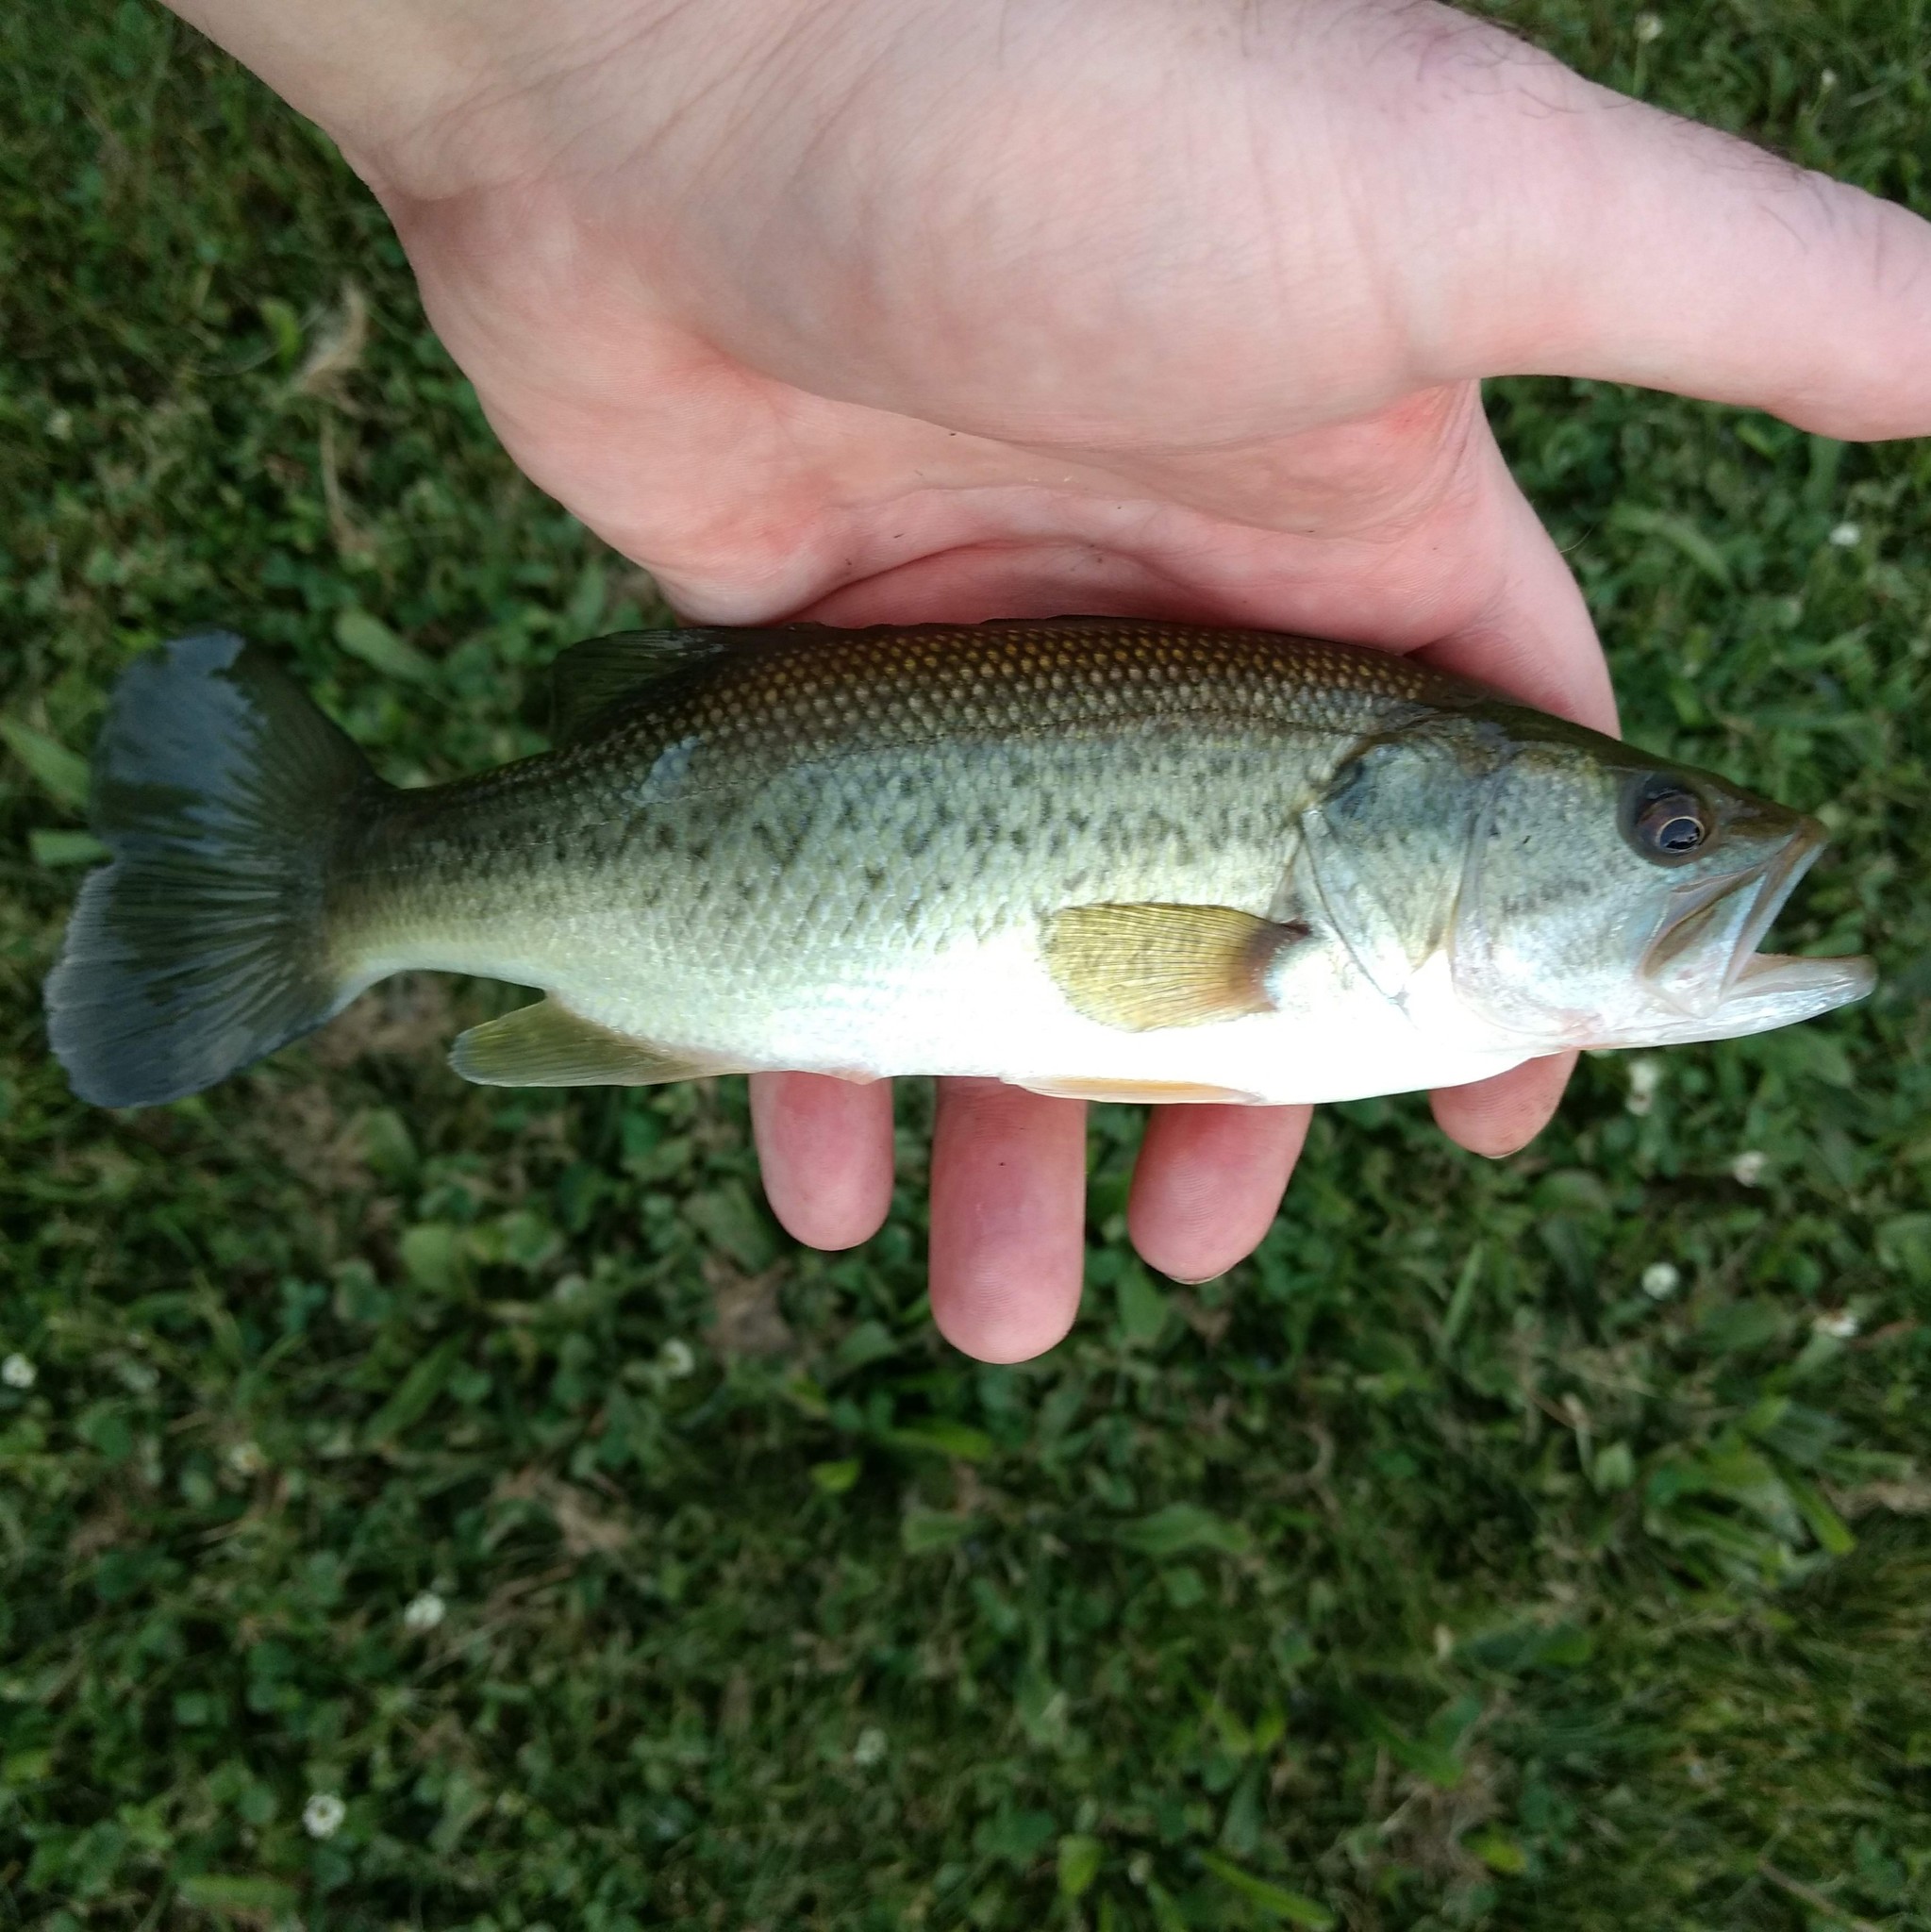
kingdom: Animalia
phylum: Chordata
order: Perciformes
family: Centrarchidae
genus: Micropterus
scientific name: Micropterus
